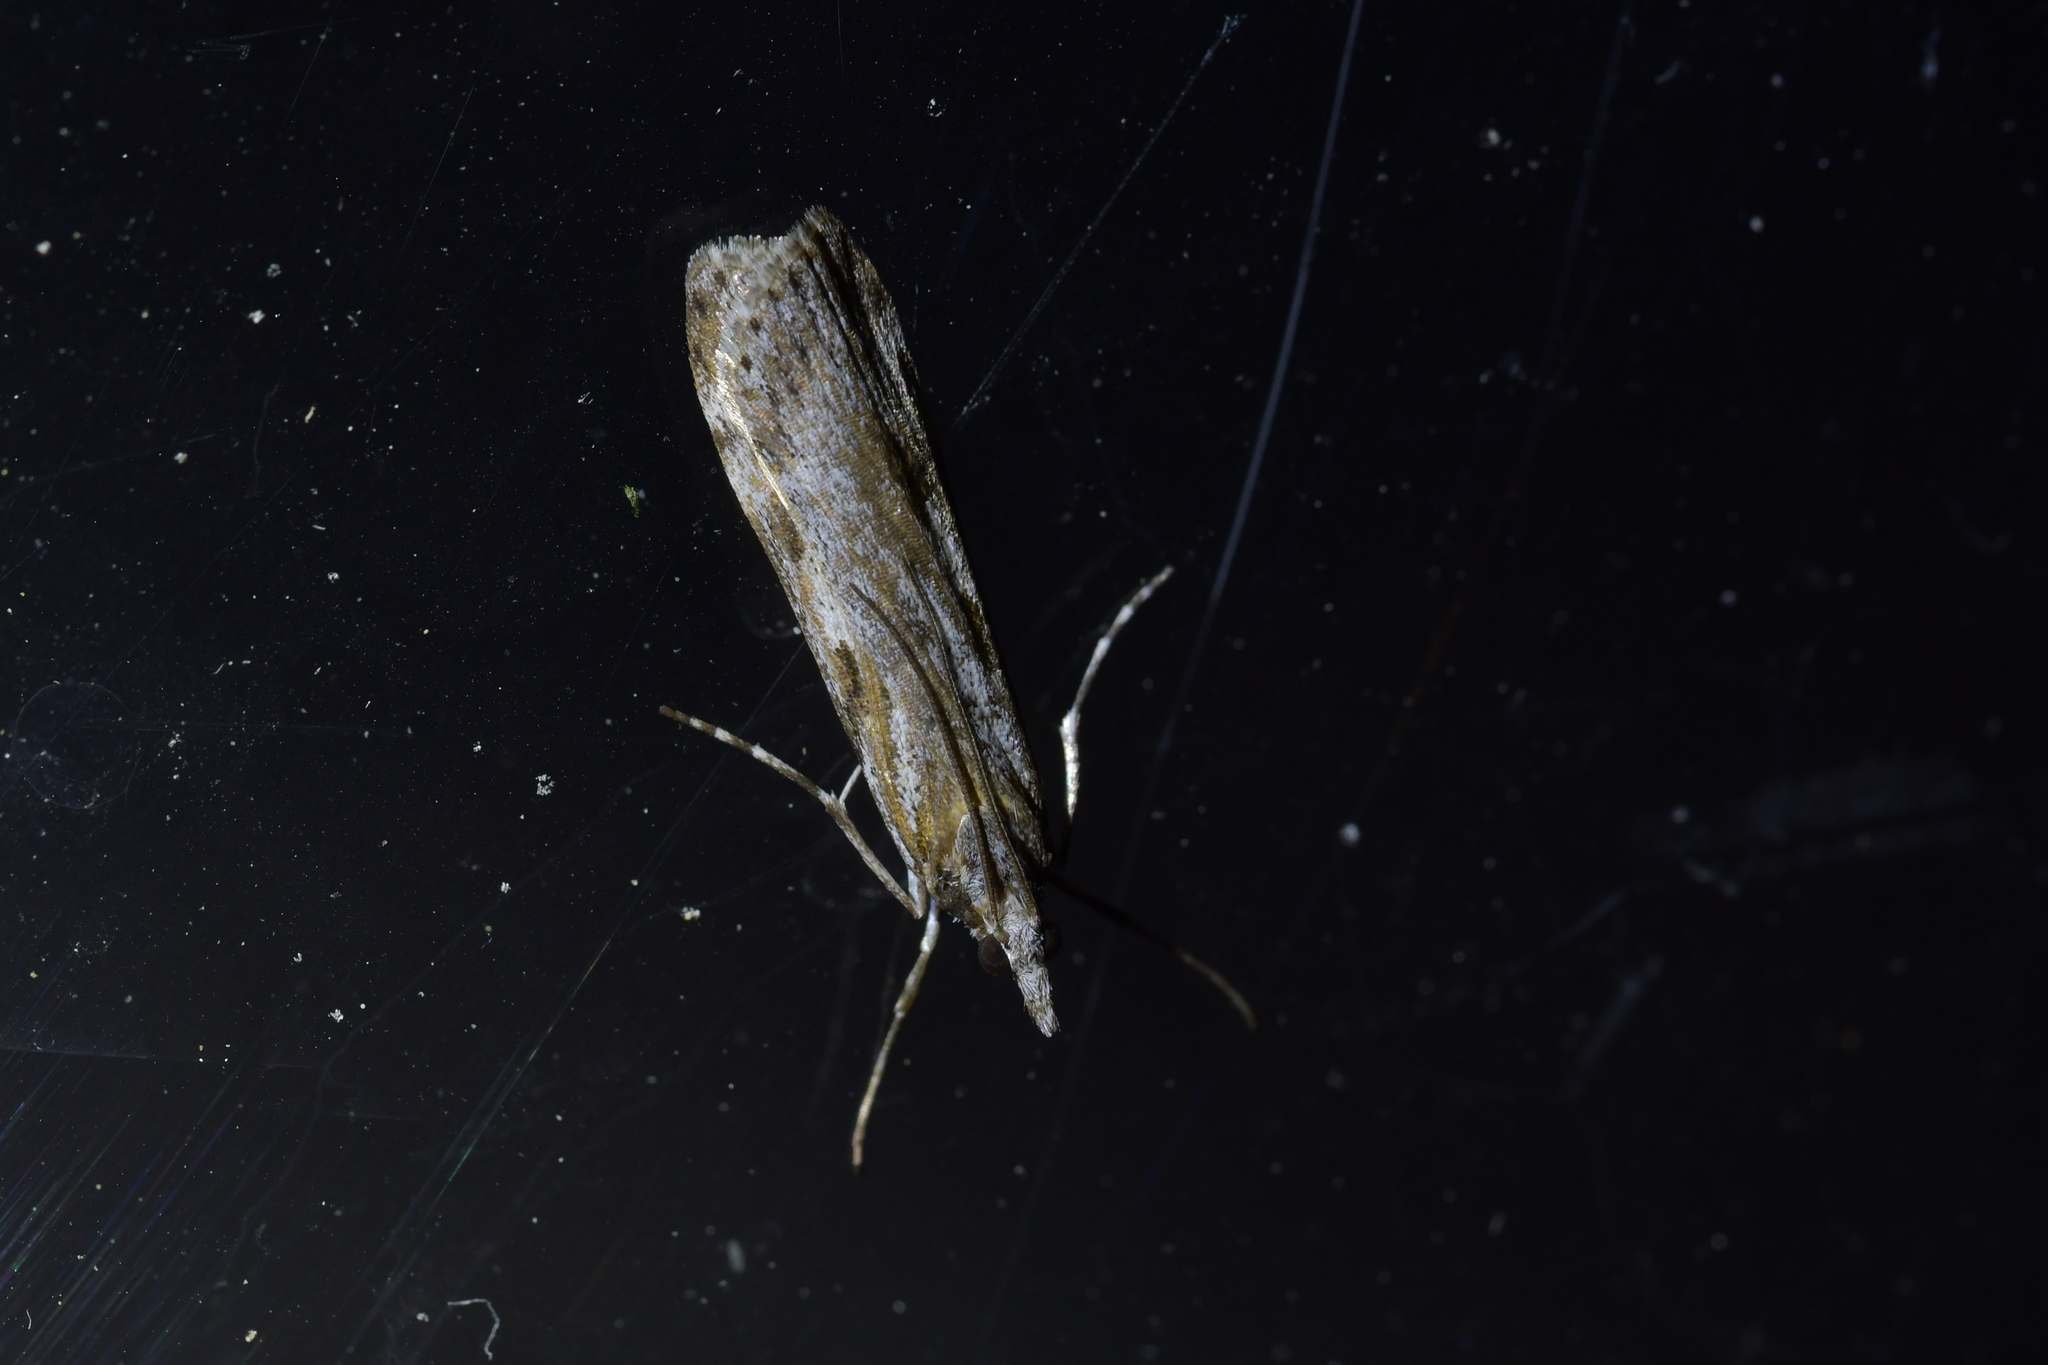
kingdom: Animalia
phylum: Arthropoda
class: Insecta
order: Lepidoptera
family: Crambidae
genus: Scoparia
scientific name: Scoparia halopis
